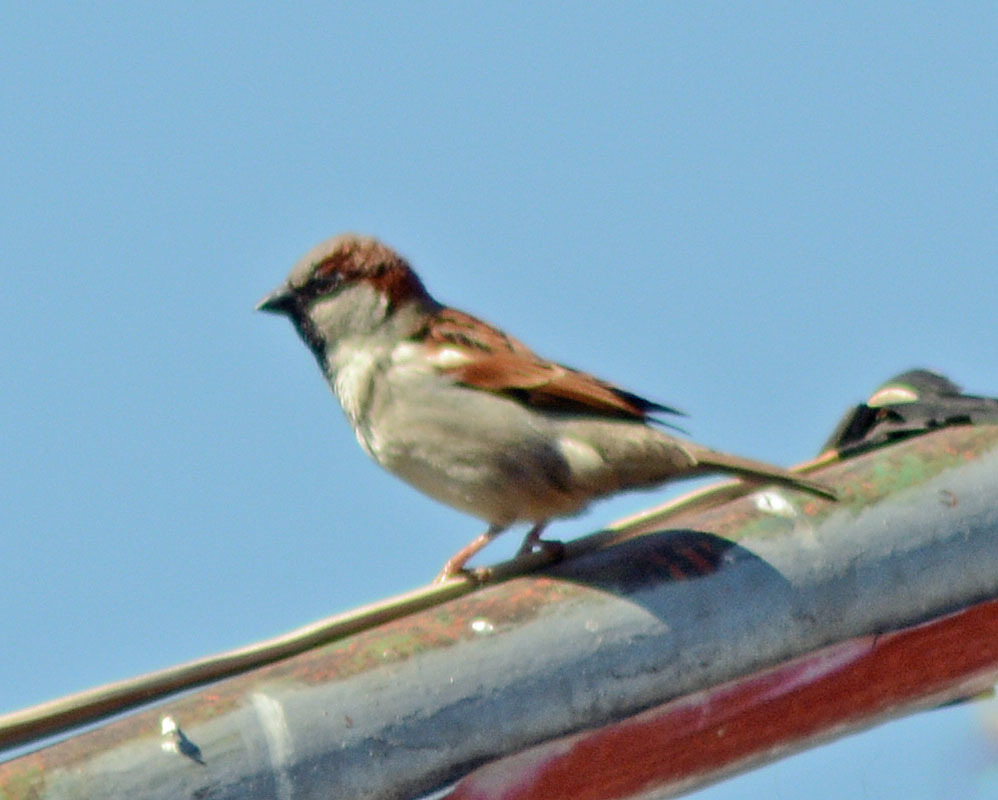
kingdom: Animalia
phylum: Chordata
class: Aves
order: Passeriformes
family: Passeridae
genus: Passer
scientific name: Passer domesticus
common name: House sparrow
